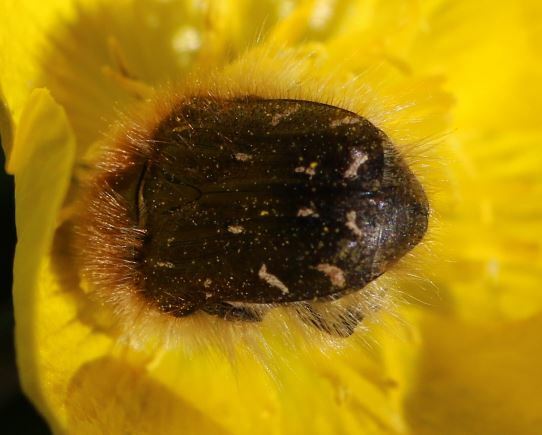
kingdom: Animalia
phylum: Arthropoda
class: Insecta
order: Coleoptera
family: Scarabaeidae
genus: Tropinota
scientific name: Tropinota hirta
